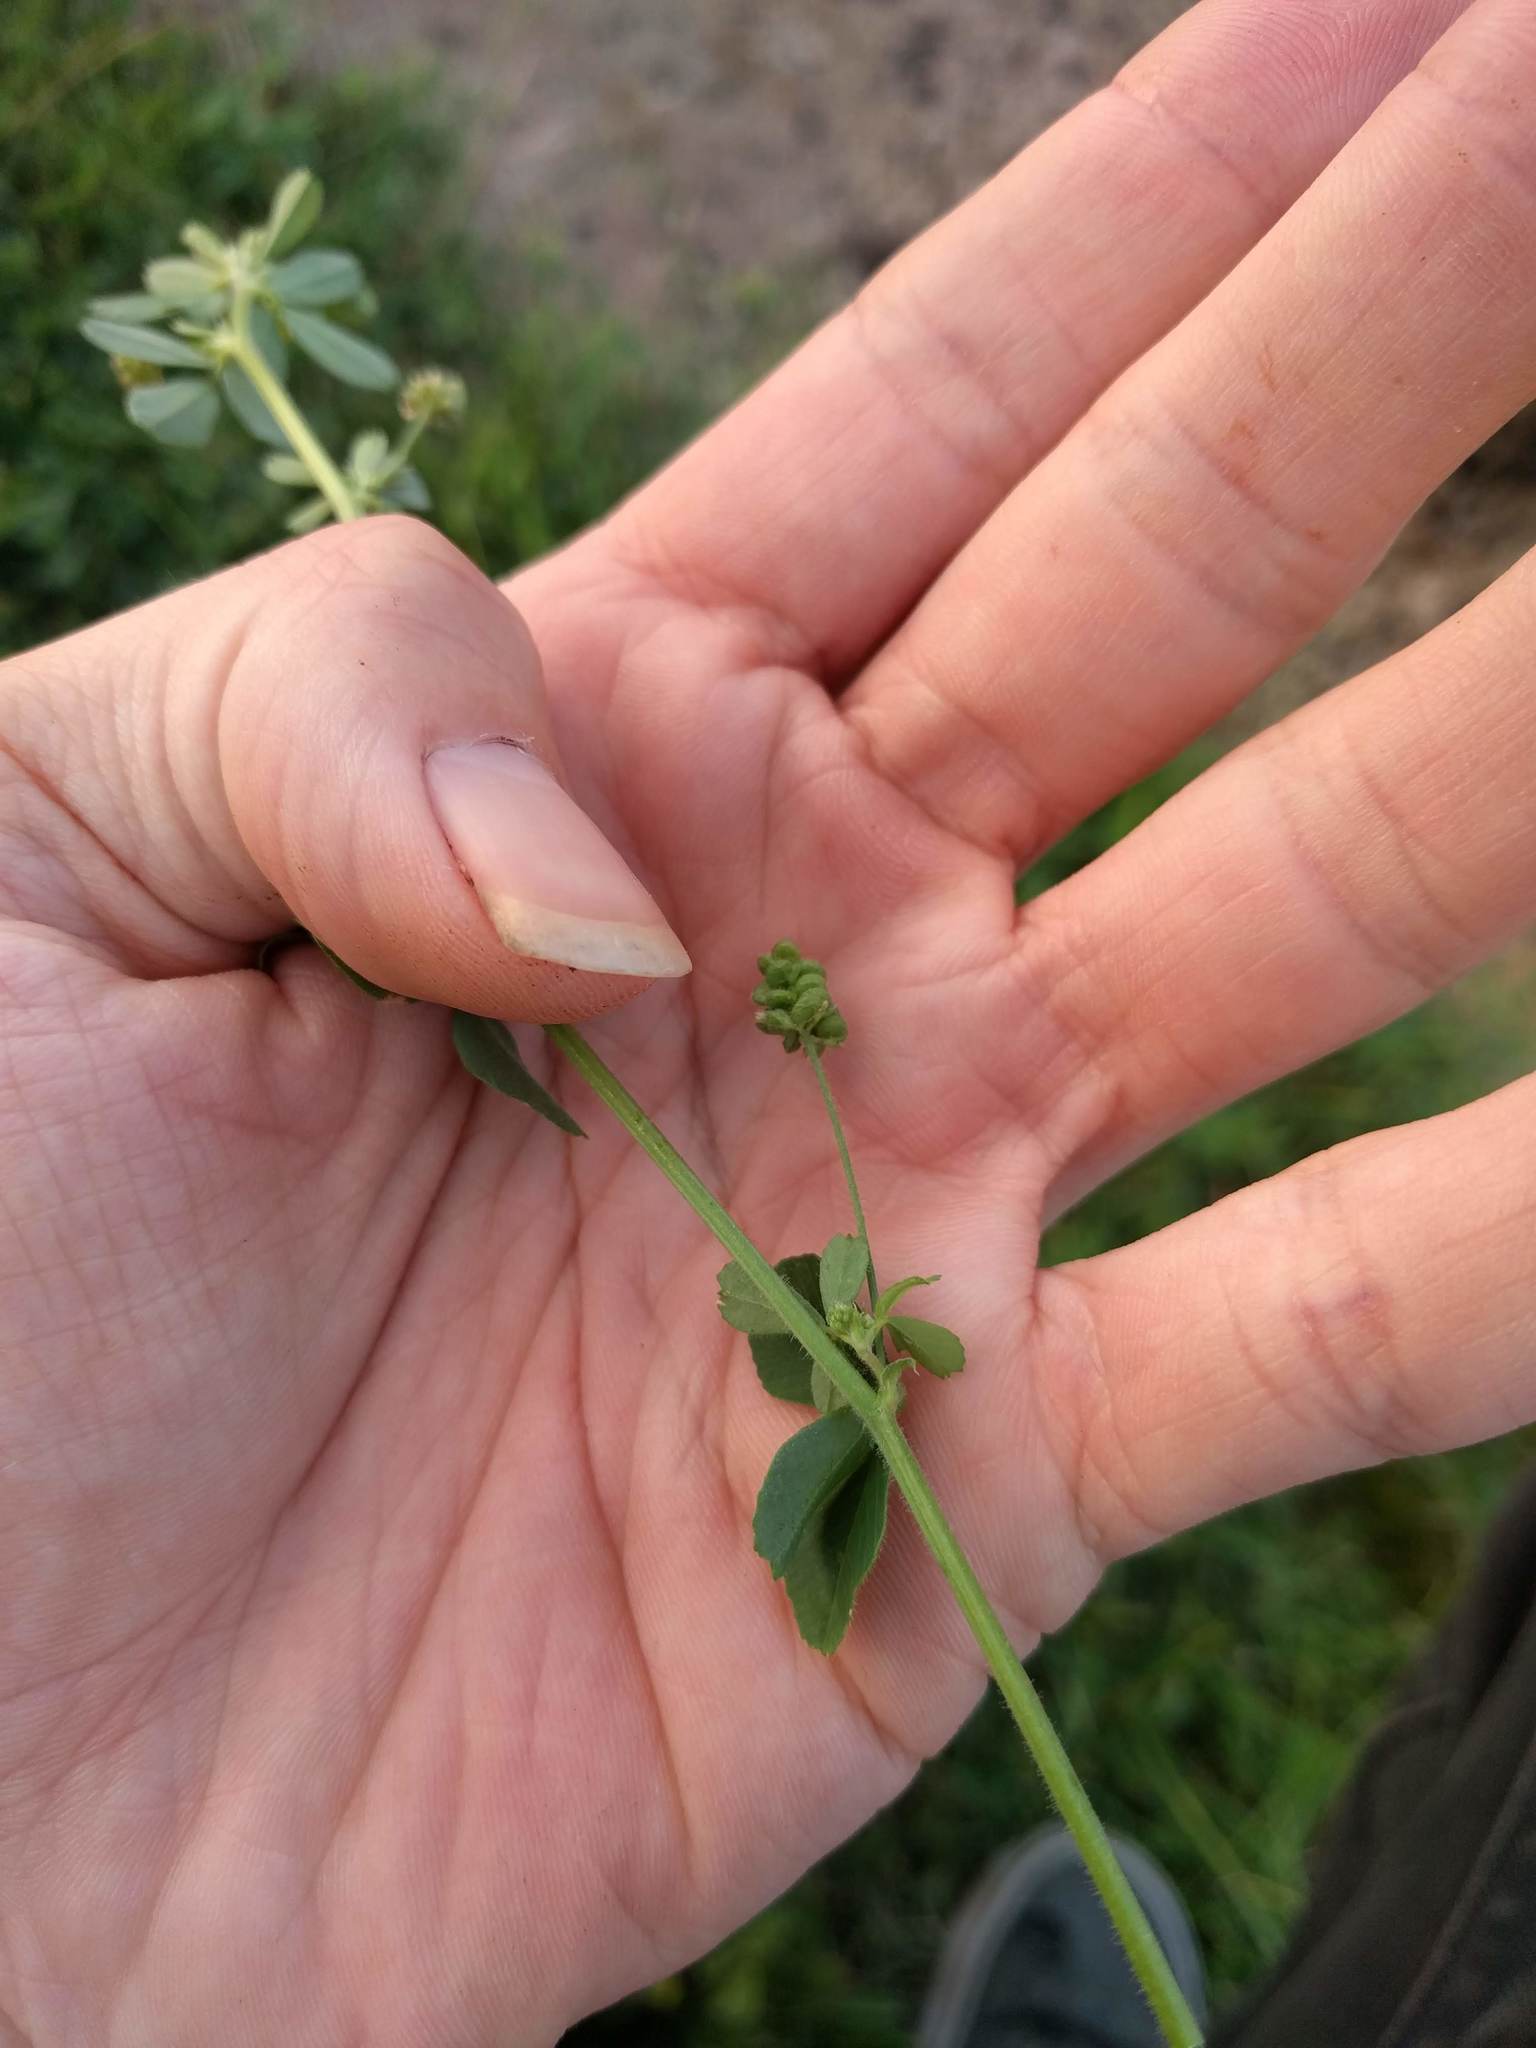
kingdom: Plantae
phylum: Tracheophyta
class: Magnoliopsida
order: Fabales
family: Fabaceae
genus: Medicago
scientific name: Medicago lupulina
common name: Black medick
